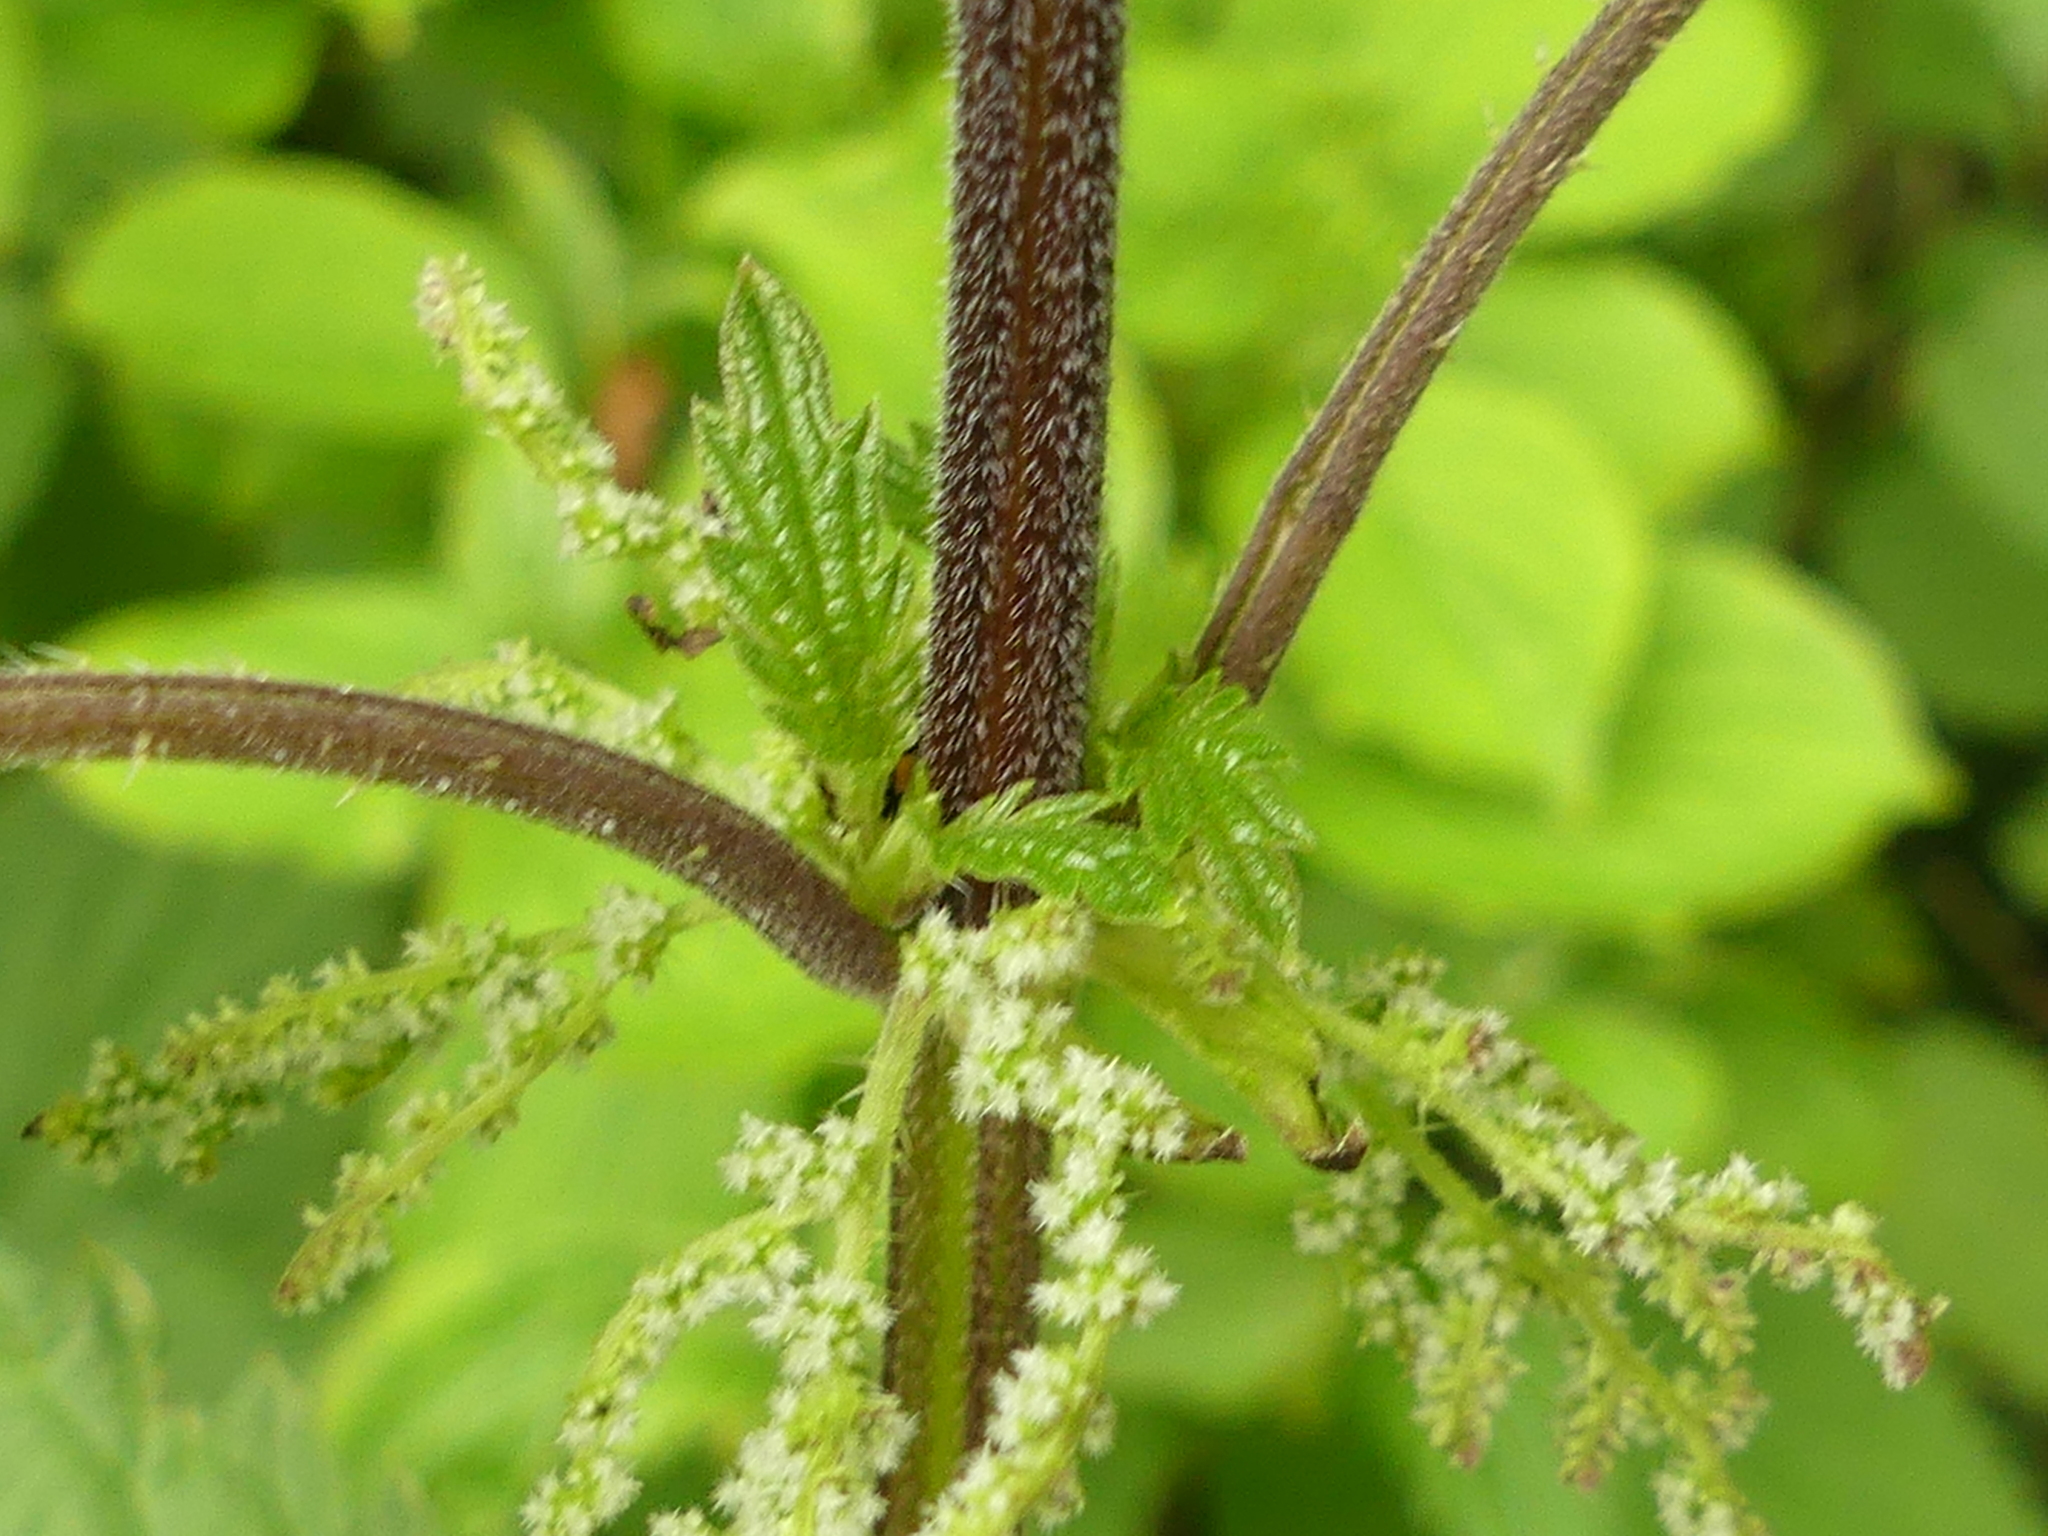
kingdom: Plantae
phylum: Tracheophyta
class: Magnoliopsida
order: Rosales
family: Urticaceae
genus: Urtica
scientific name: Urtica dioica
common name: Common nettle
